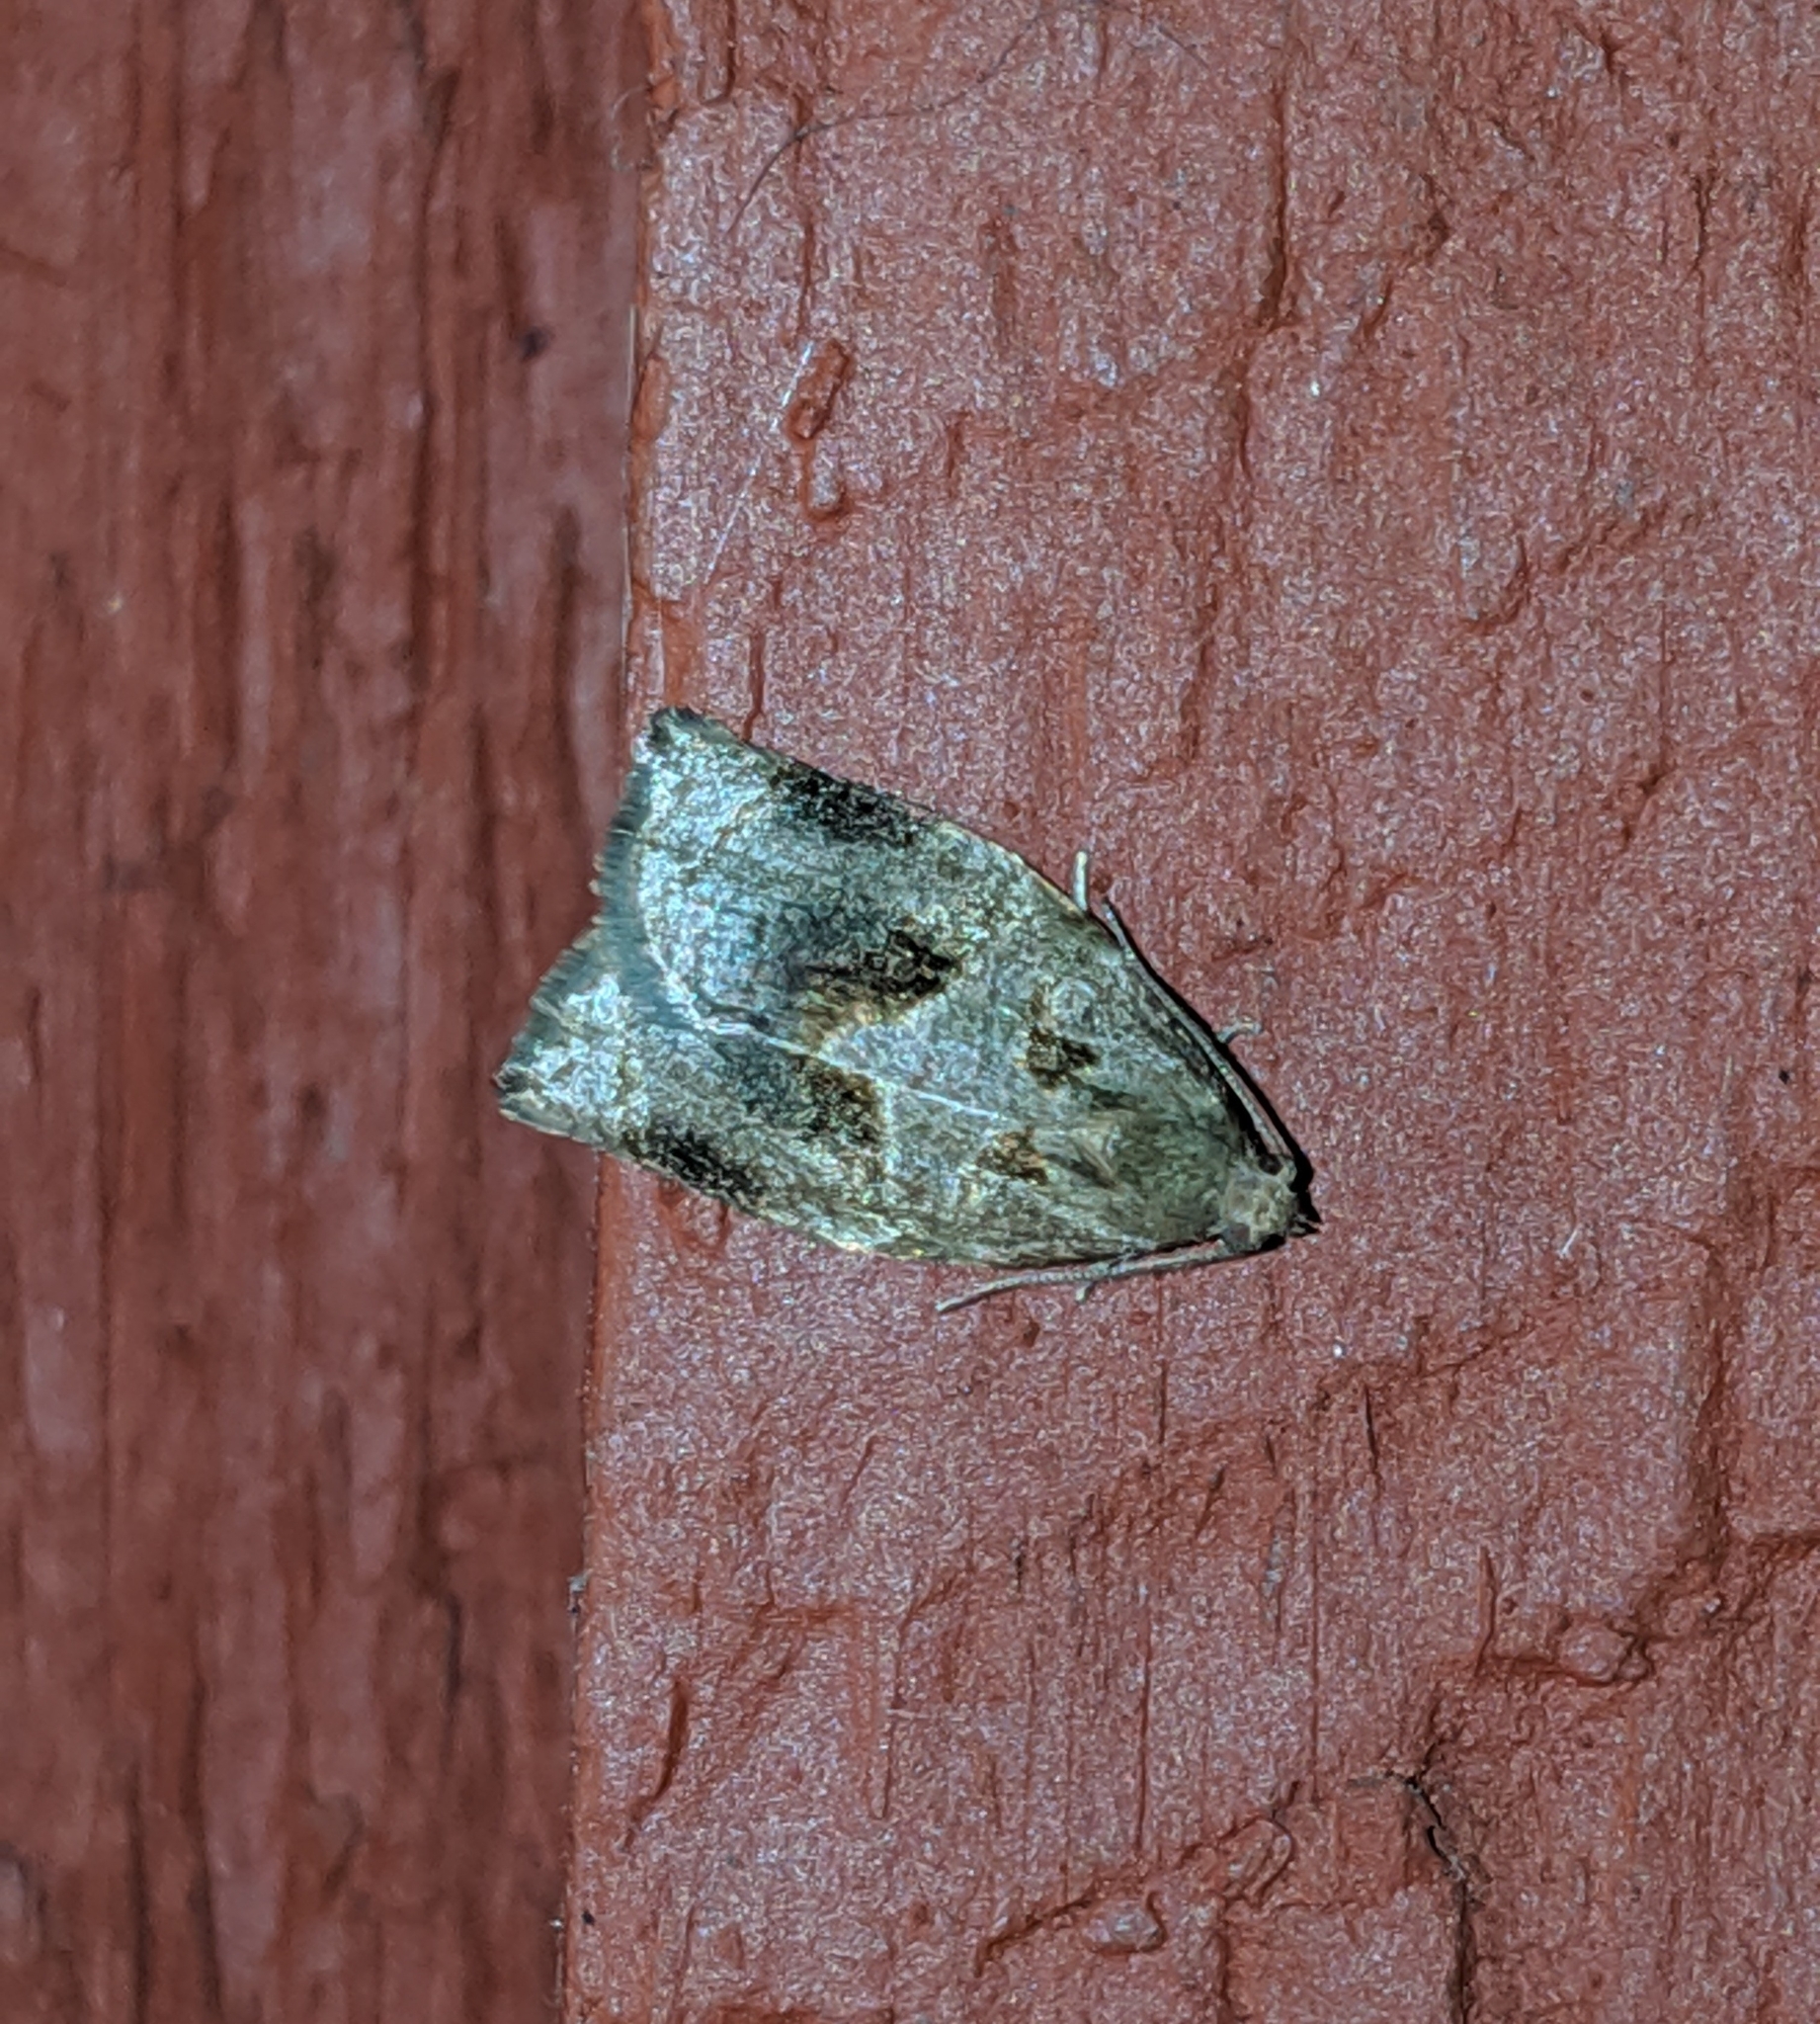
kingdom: Animalia
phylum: Arthropoda
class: Insecta
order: Lepidoptera
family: Tortricidae
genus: Archips
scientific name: Archips rosana
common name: Rose tortrix
